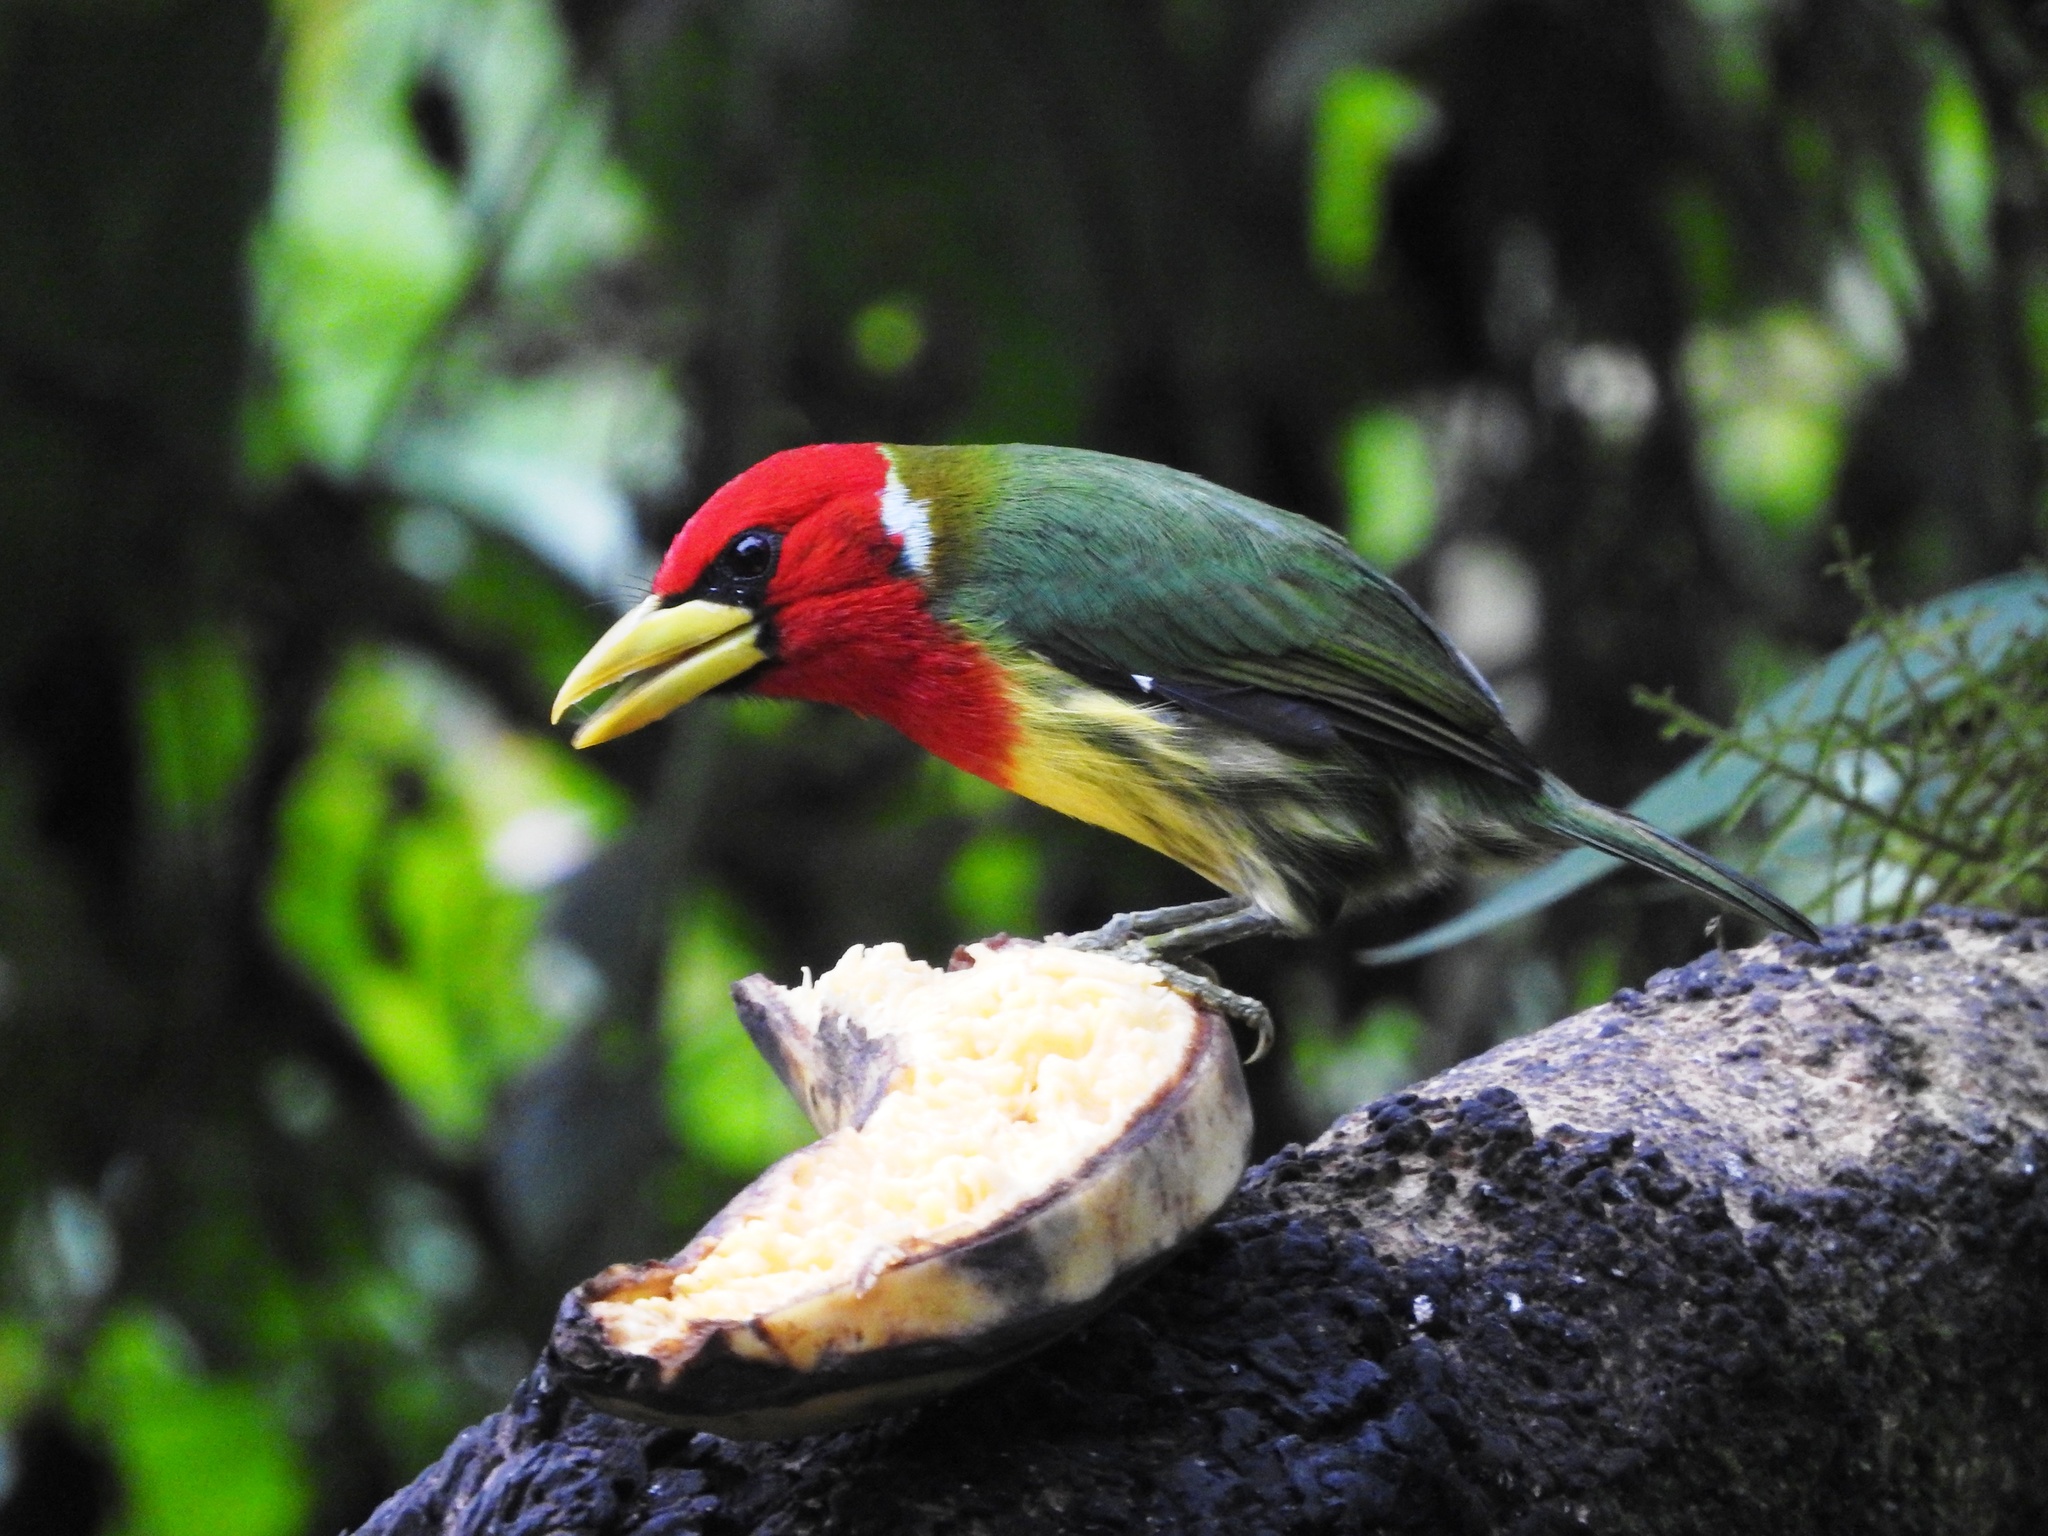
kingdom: Animalia
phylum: Chordata
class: Aves
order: Piciformes
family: Capitonidae
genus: Eubucco
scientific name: Eubucco bourcierii
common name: Red-headed barbet
